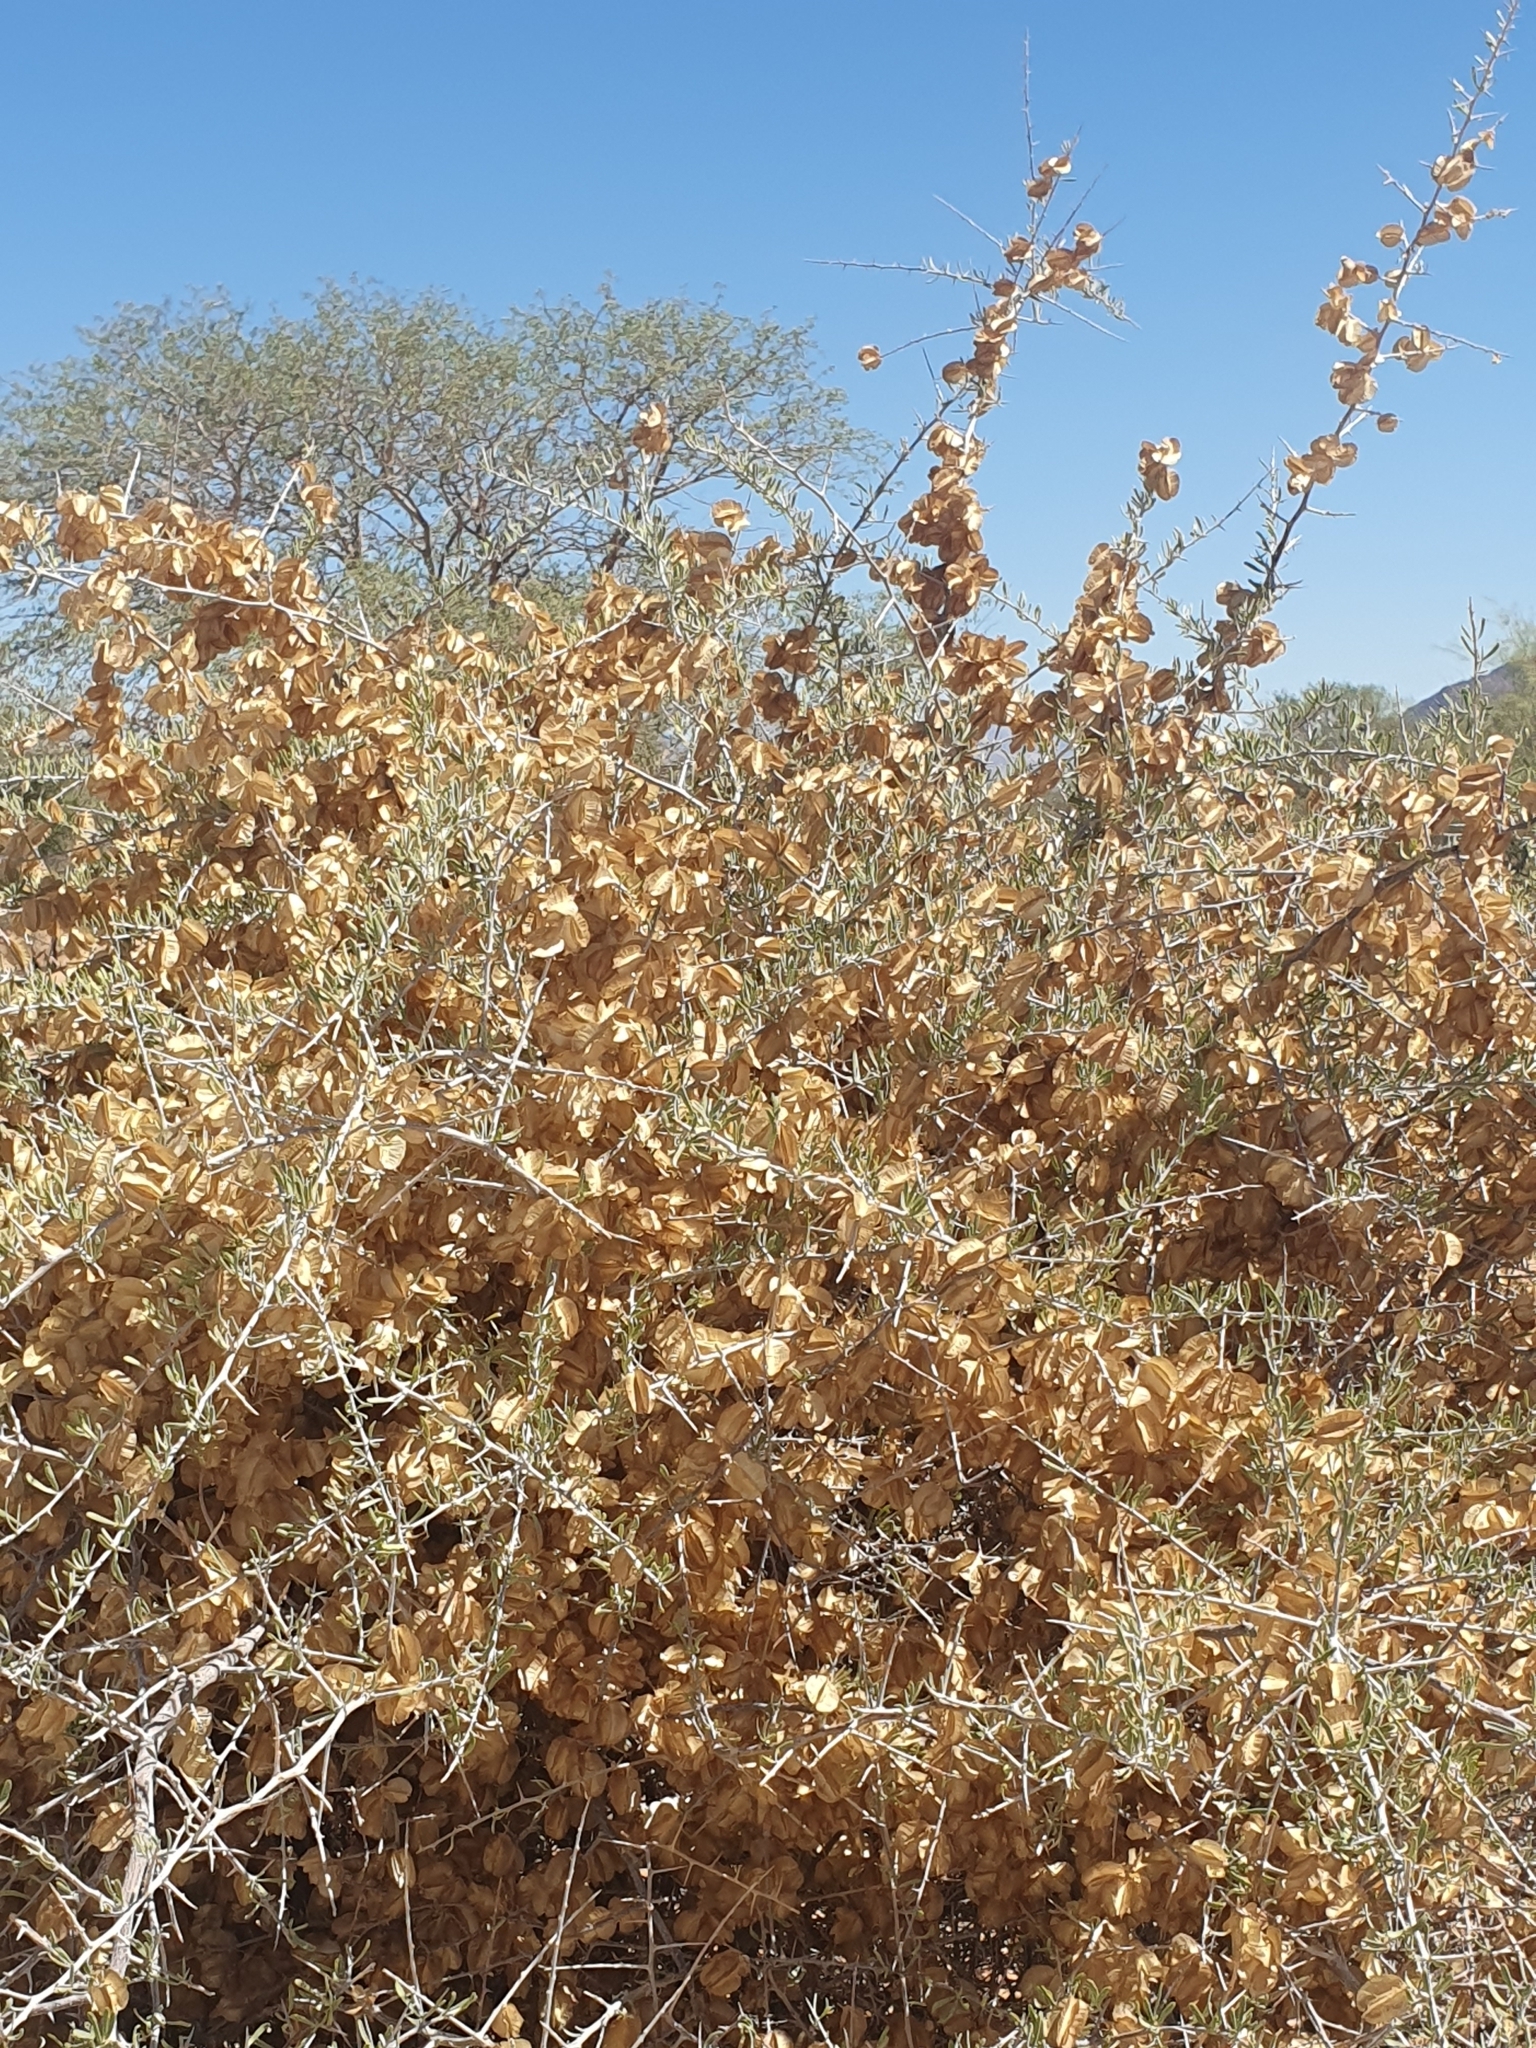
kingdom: Plantae
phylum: Tracheophyta
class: Magnoliopsida
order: Caryophyllales
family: Nyctaginaceae
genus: Phaeoptilum
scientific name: Phaeoptilum spinosum
